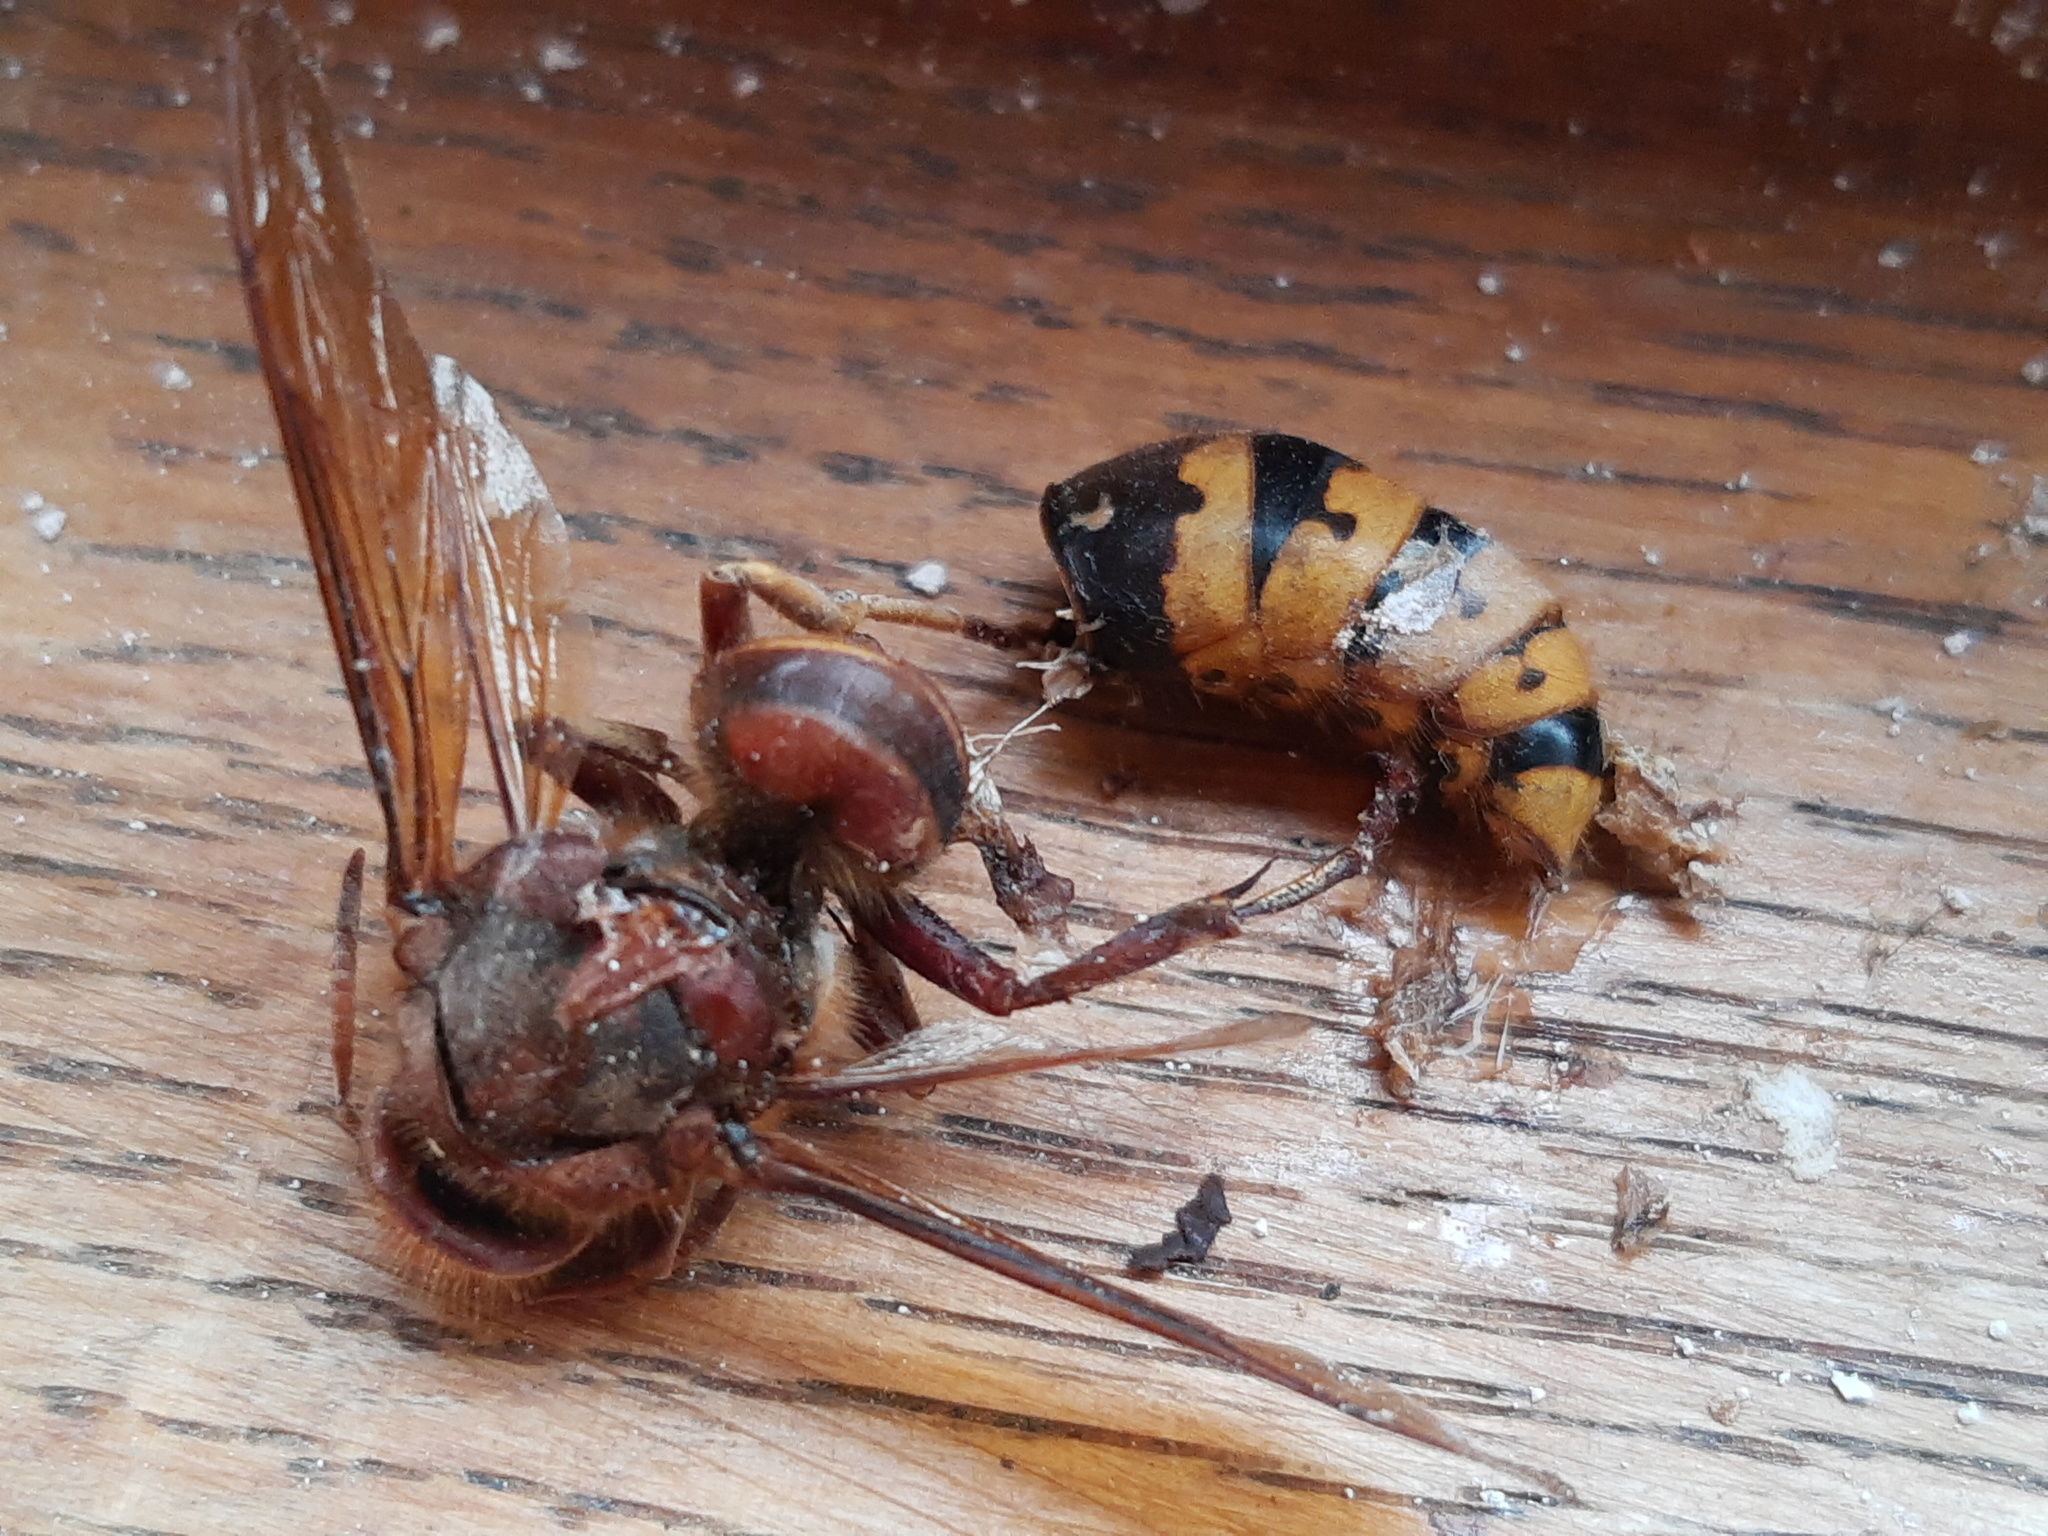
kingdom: Animalia
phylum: Arthropoda
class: Insecta
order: Hymenoptera
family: Vespidae
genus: Vespa
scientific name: Vespa crabro
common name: Hornet
